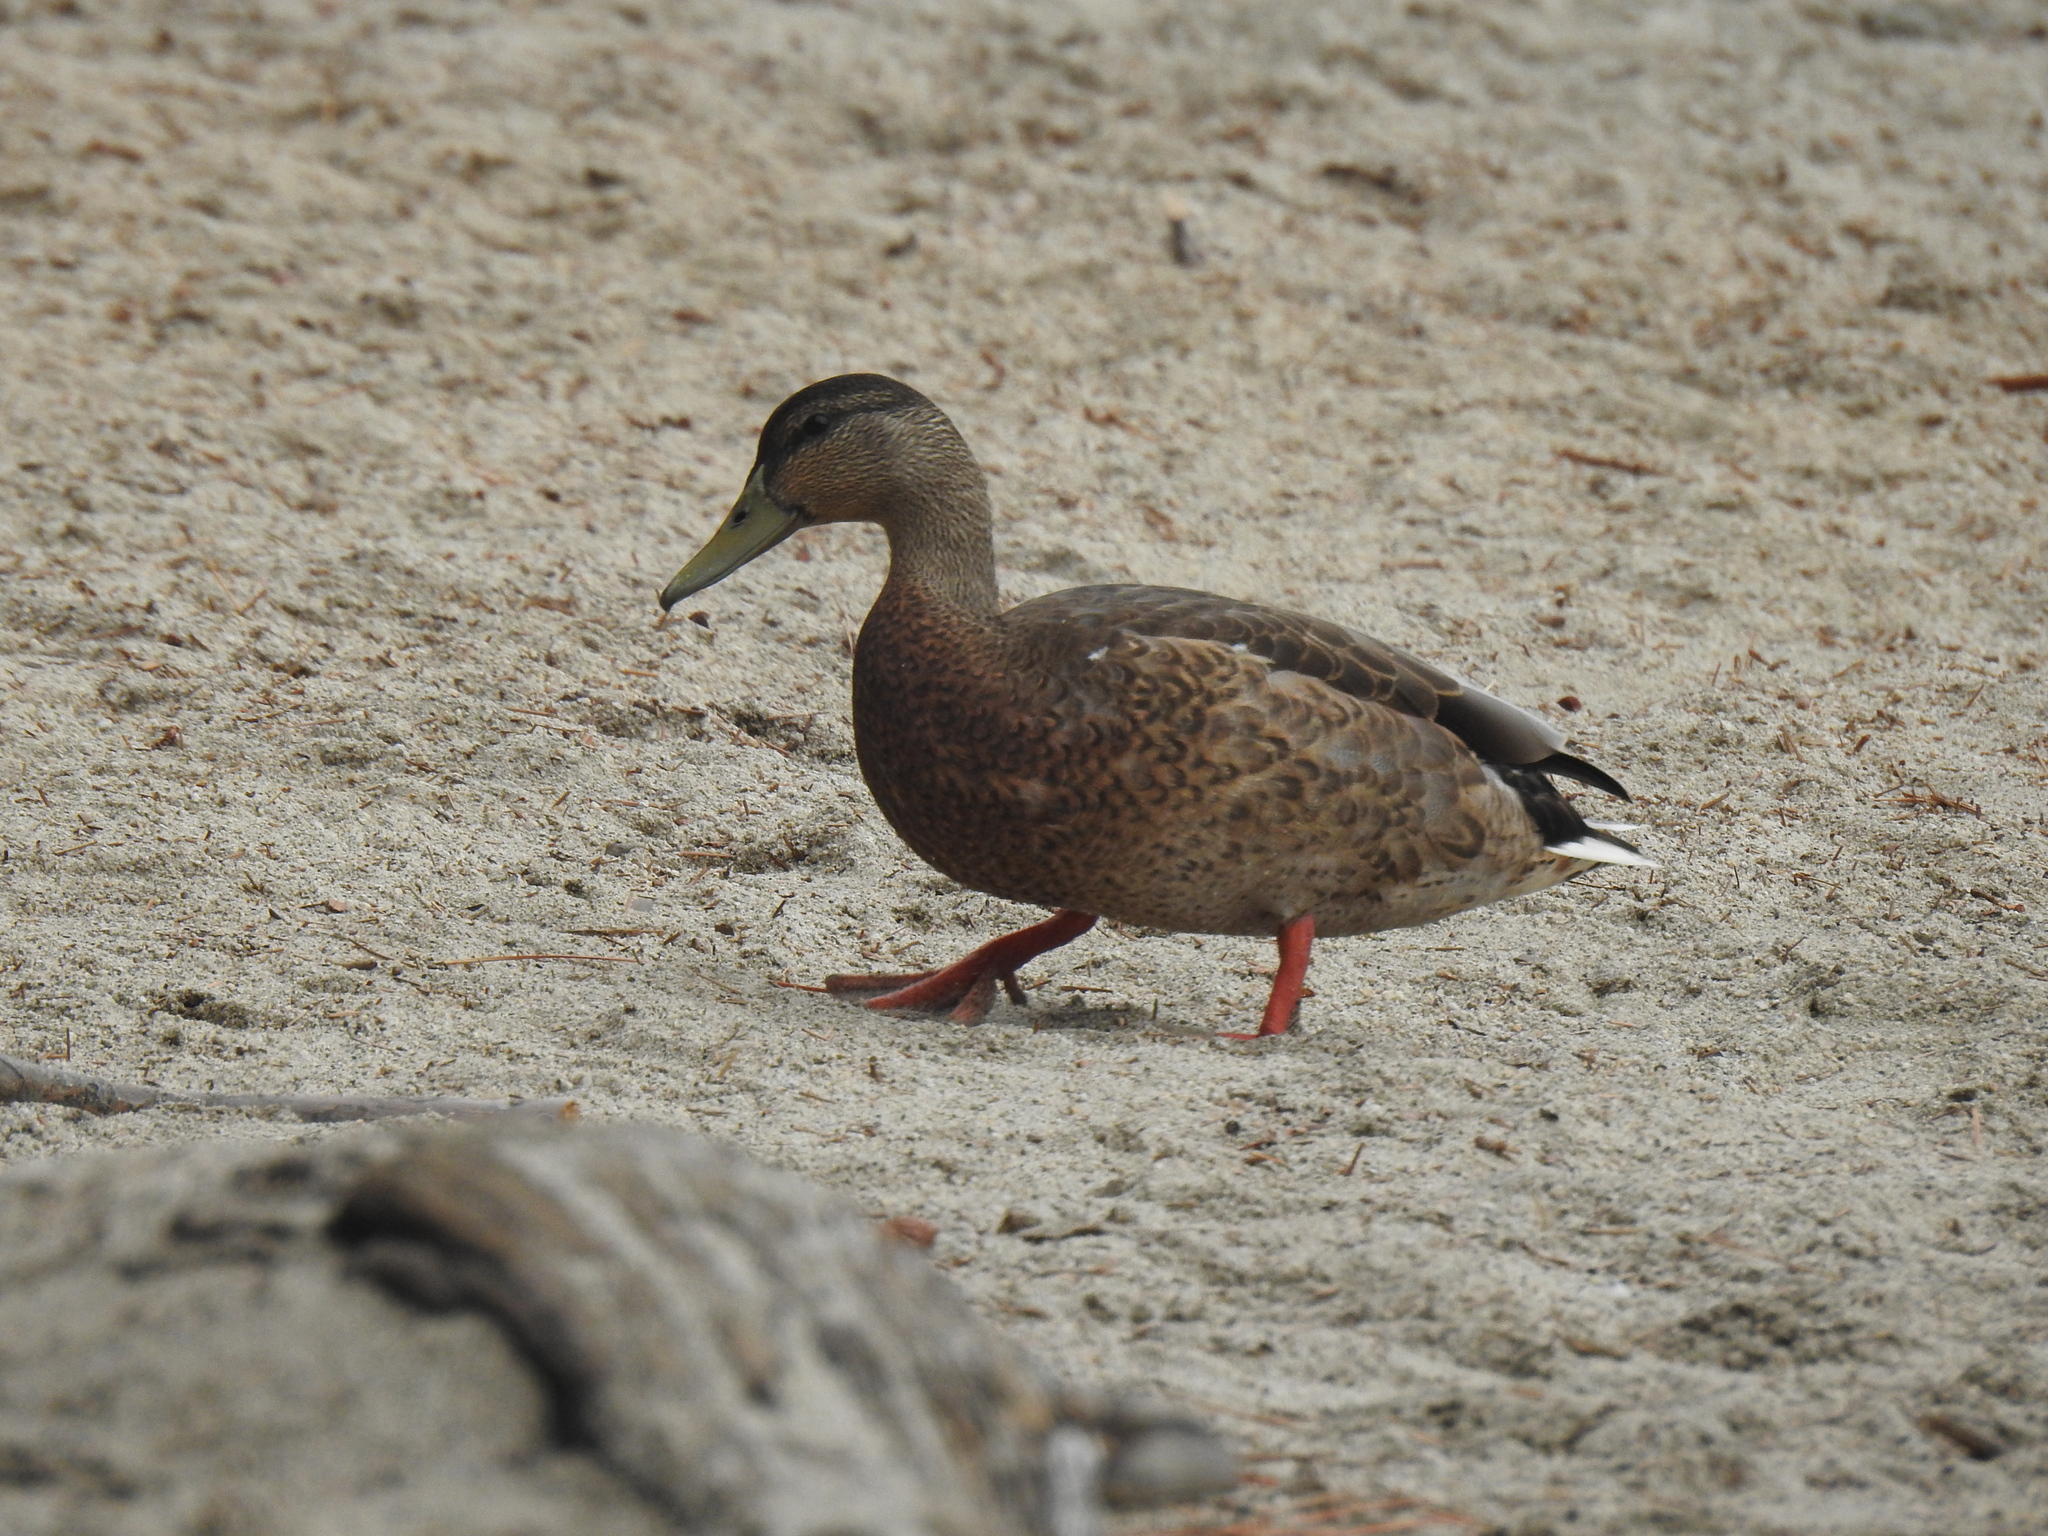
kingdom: Animalia
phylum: Chordata
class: Aves
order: Anseriformes
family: Anatidae
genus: Anas
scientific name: Anas platyrhynchos
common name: Mallard
